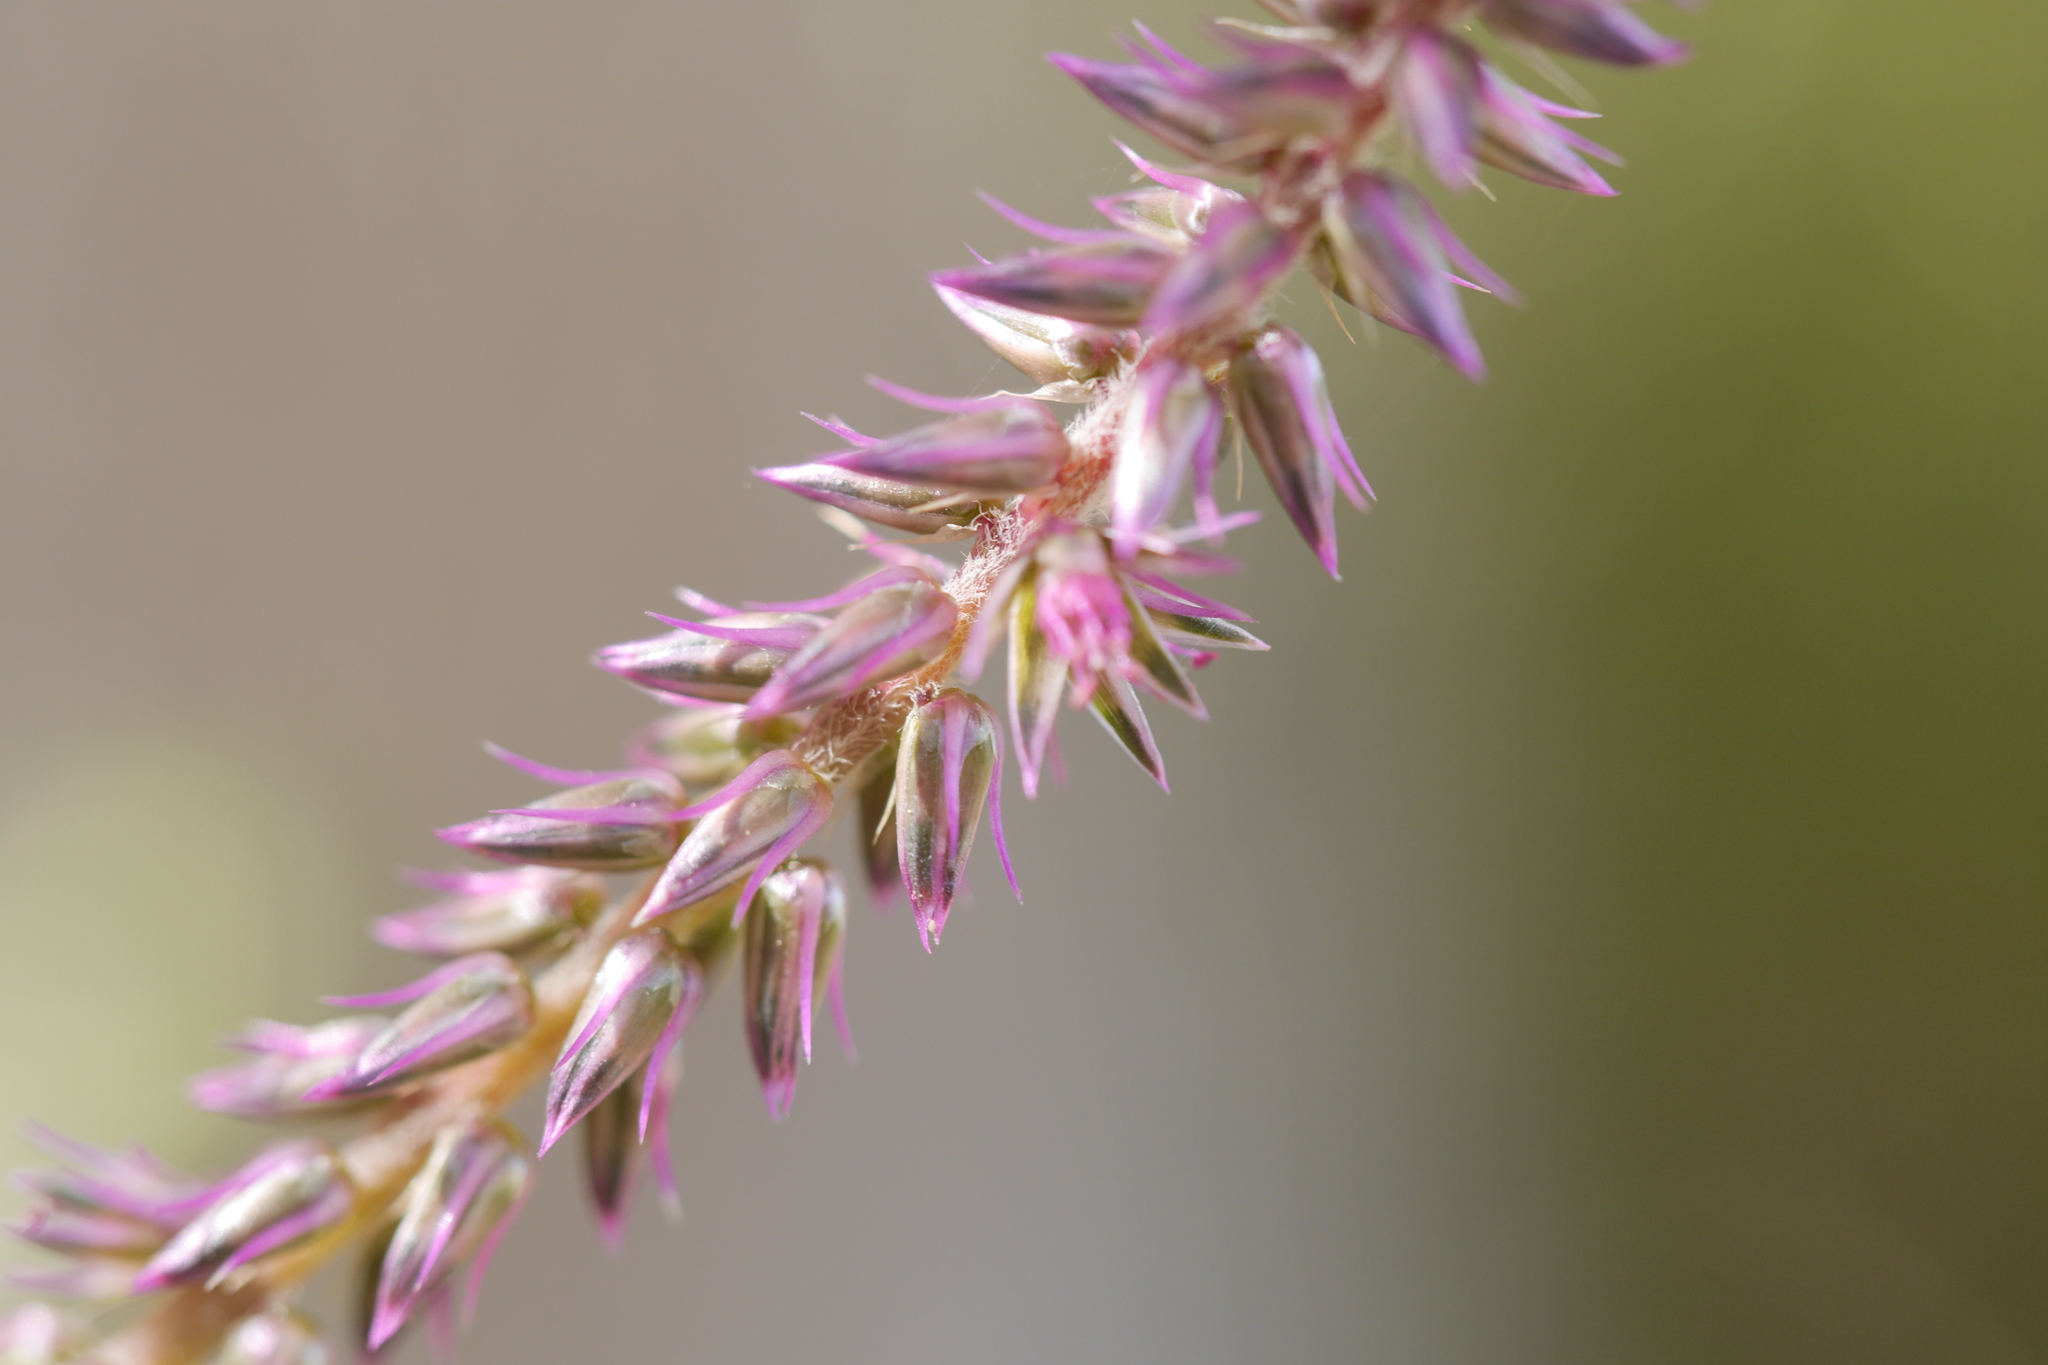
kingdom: Plantae
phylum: Tracheophyta
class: Magnoliopsida
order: Caryophyllales
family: Amaranthaceae
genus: Achyranthes
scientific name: Achyranthes aspera
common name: Devil's horsewhip
